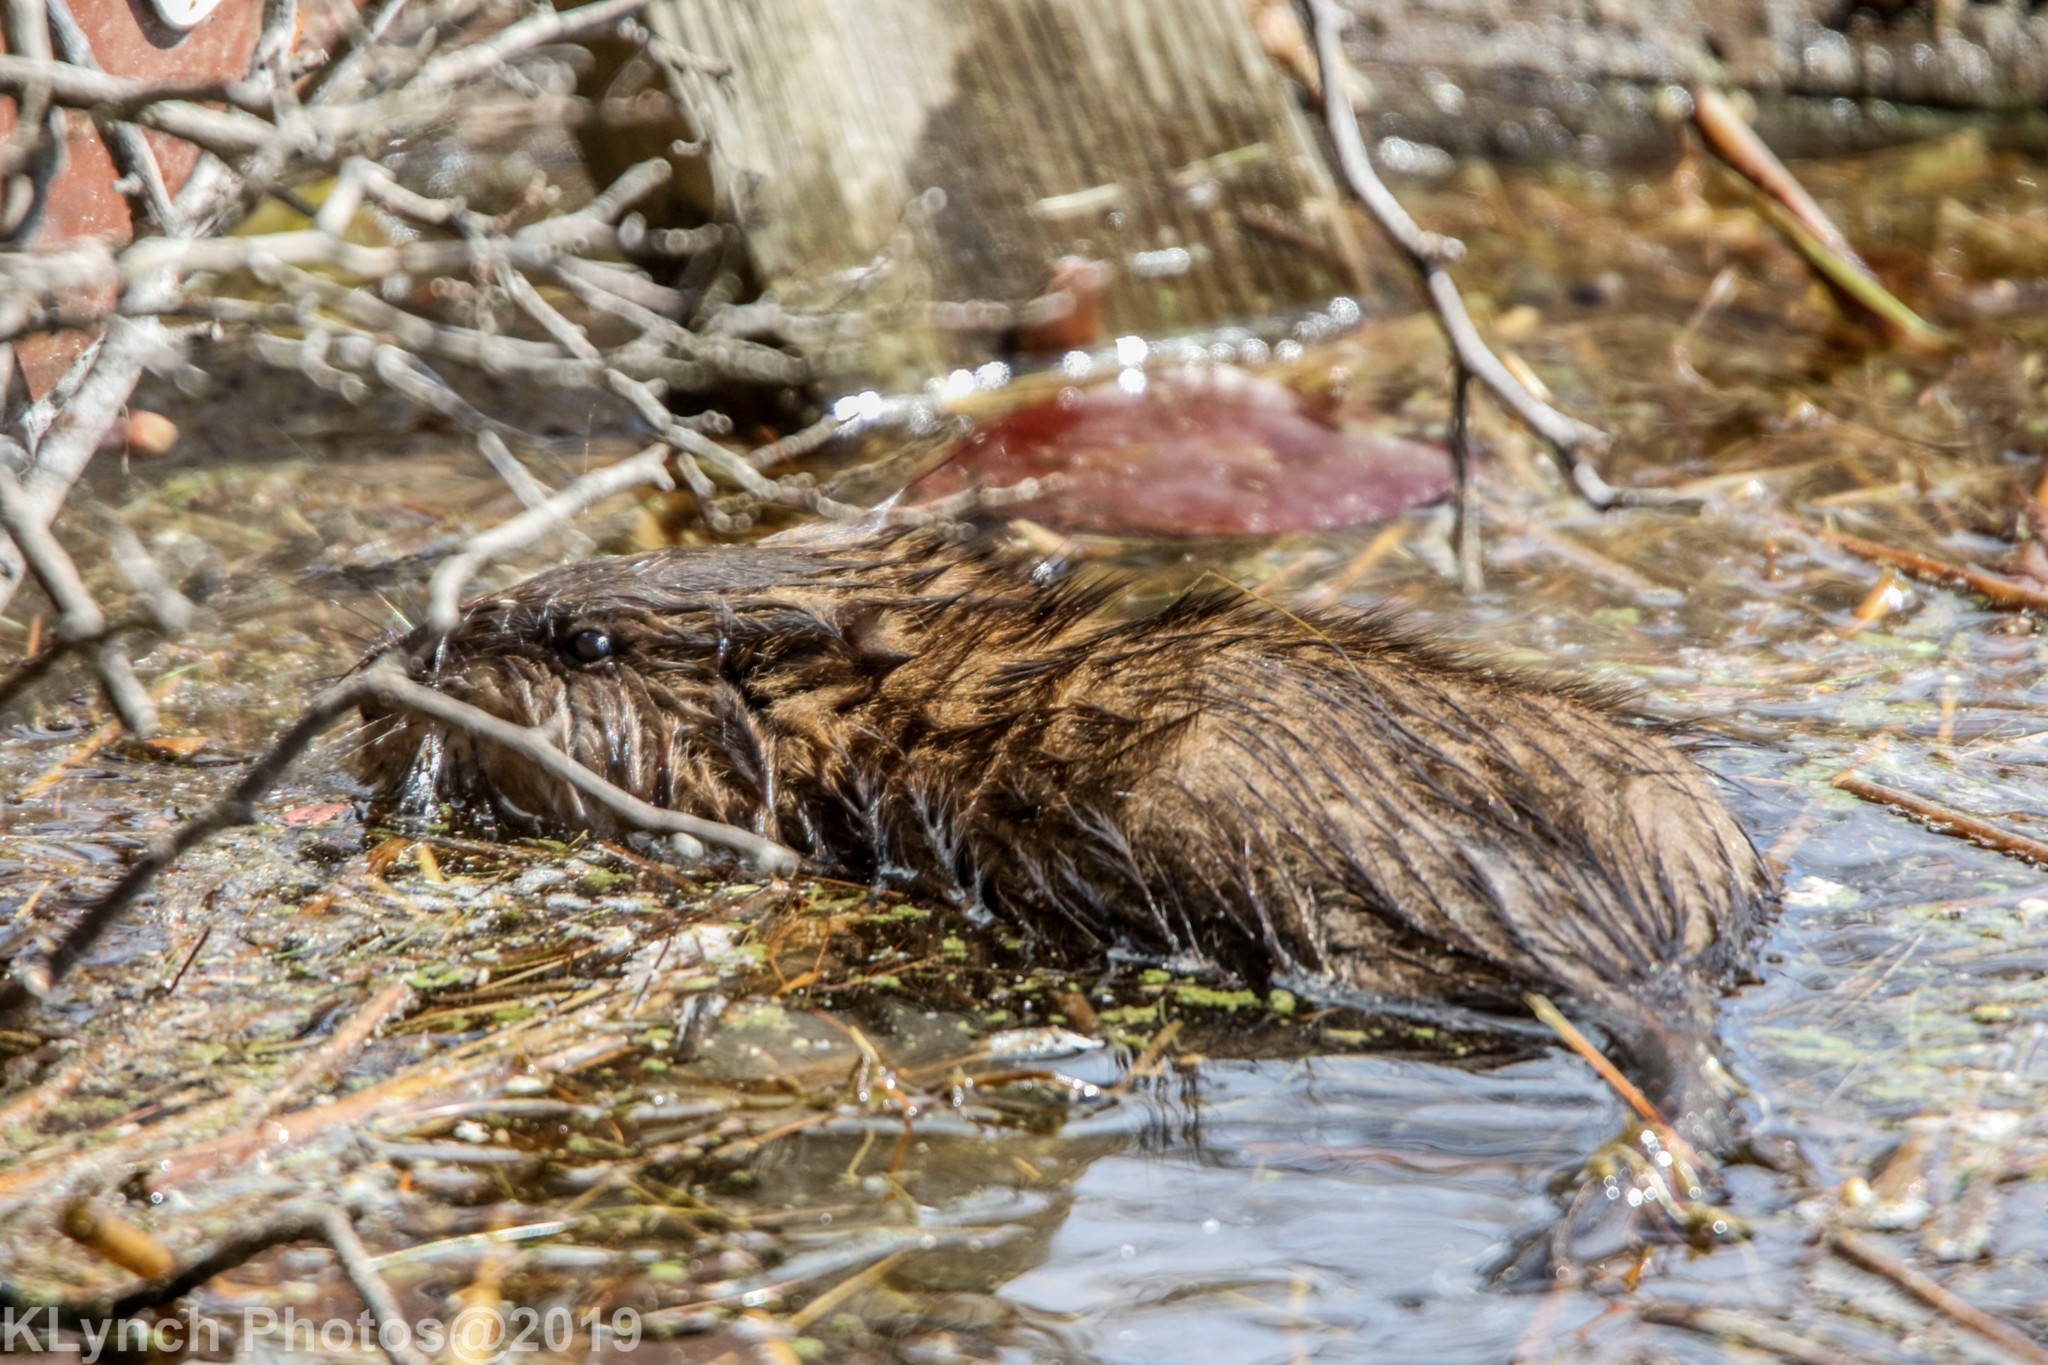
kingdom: Animalia
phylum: Chordata
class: Mammalia
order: Rodentia
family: Cricetidae
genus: Ondatra
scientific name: Ondatra zibethicus
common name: Muskrat
